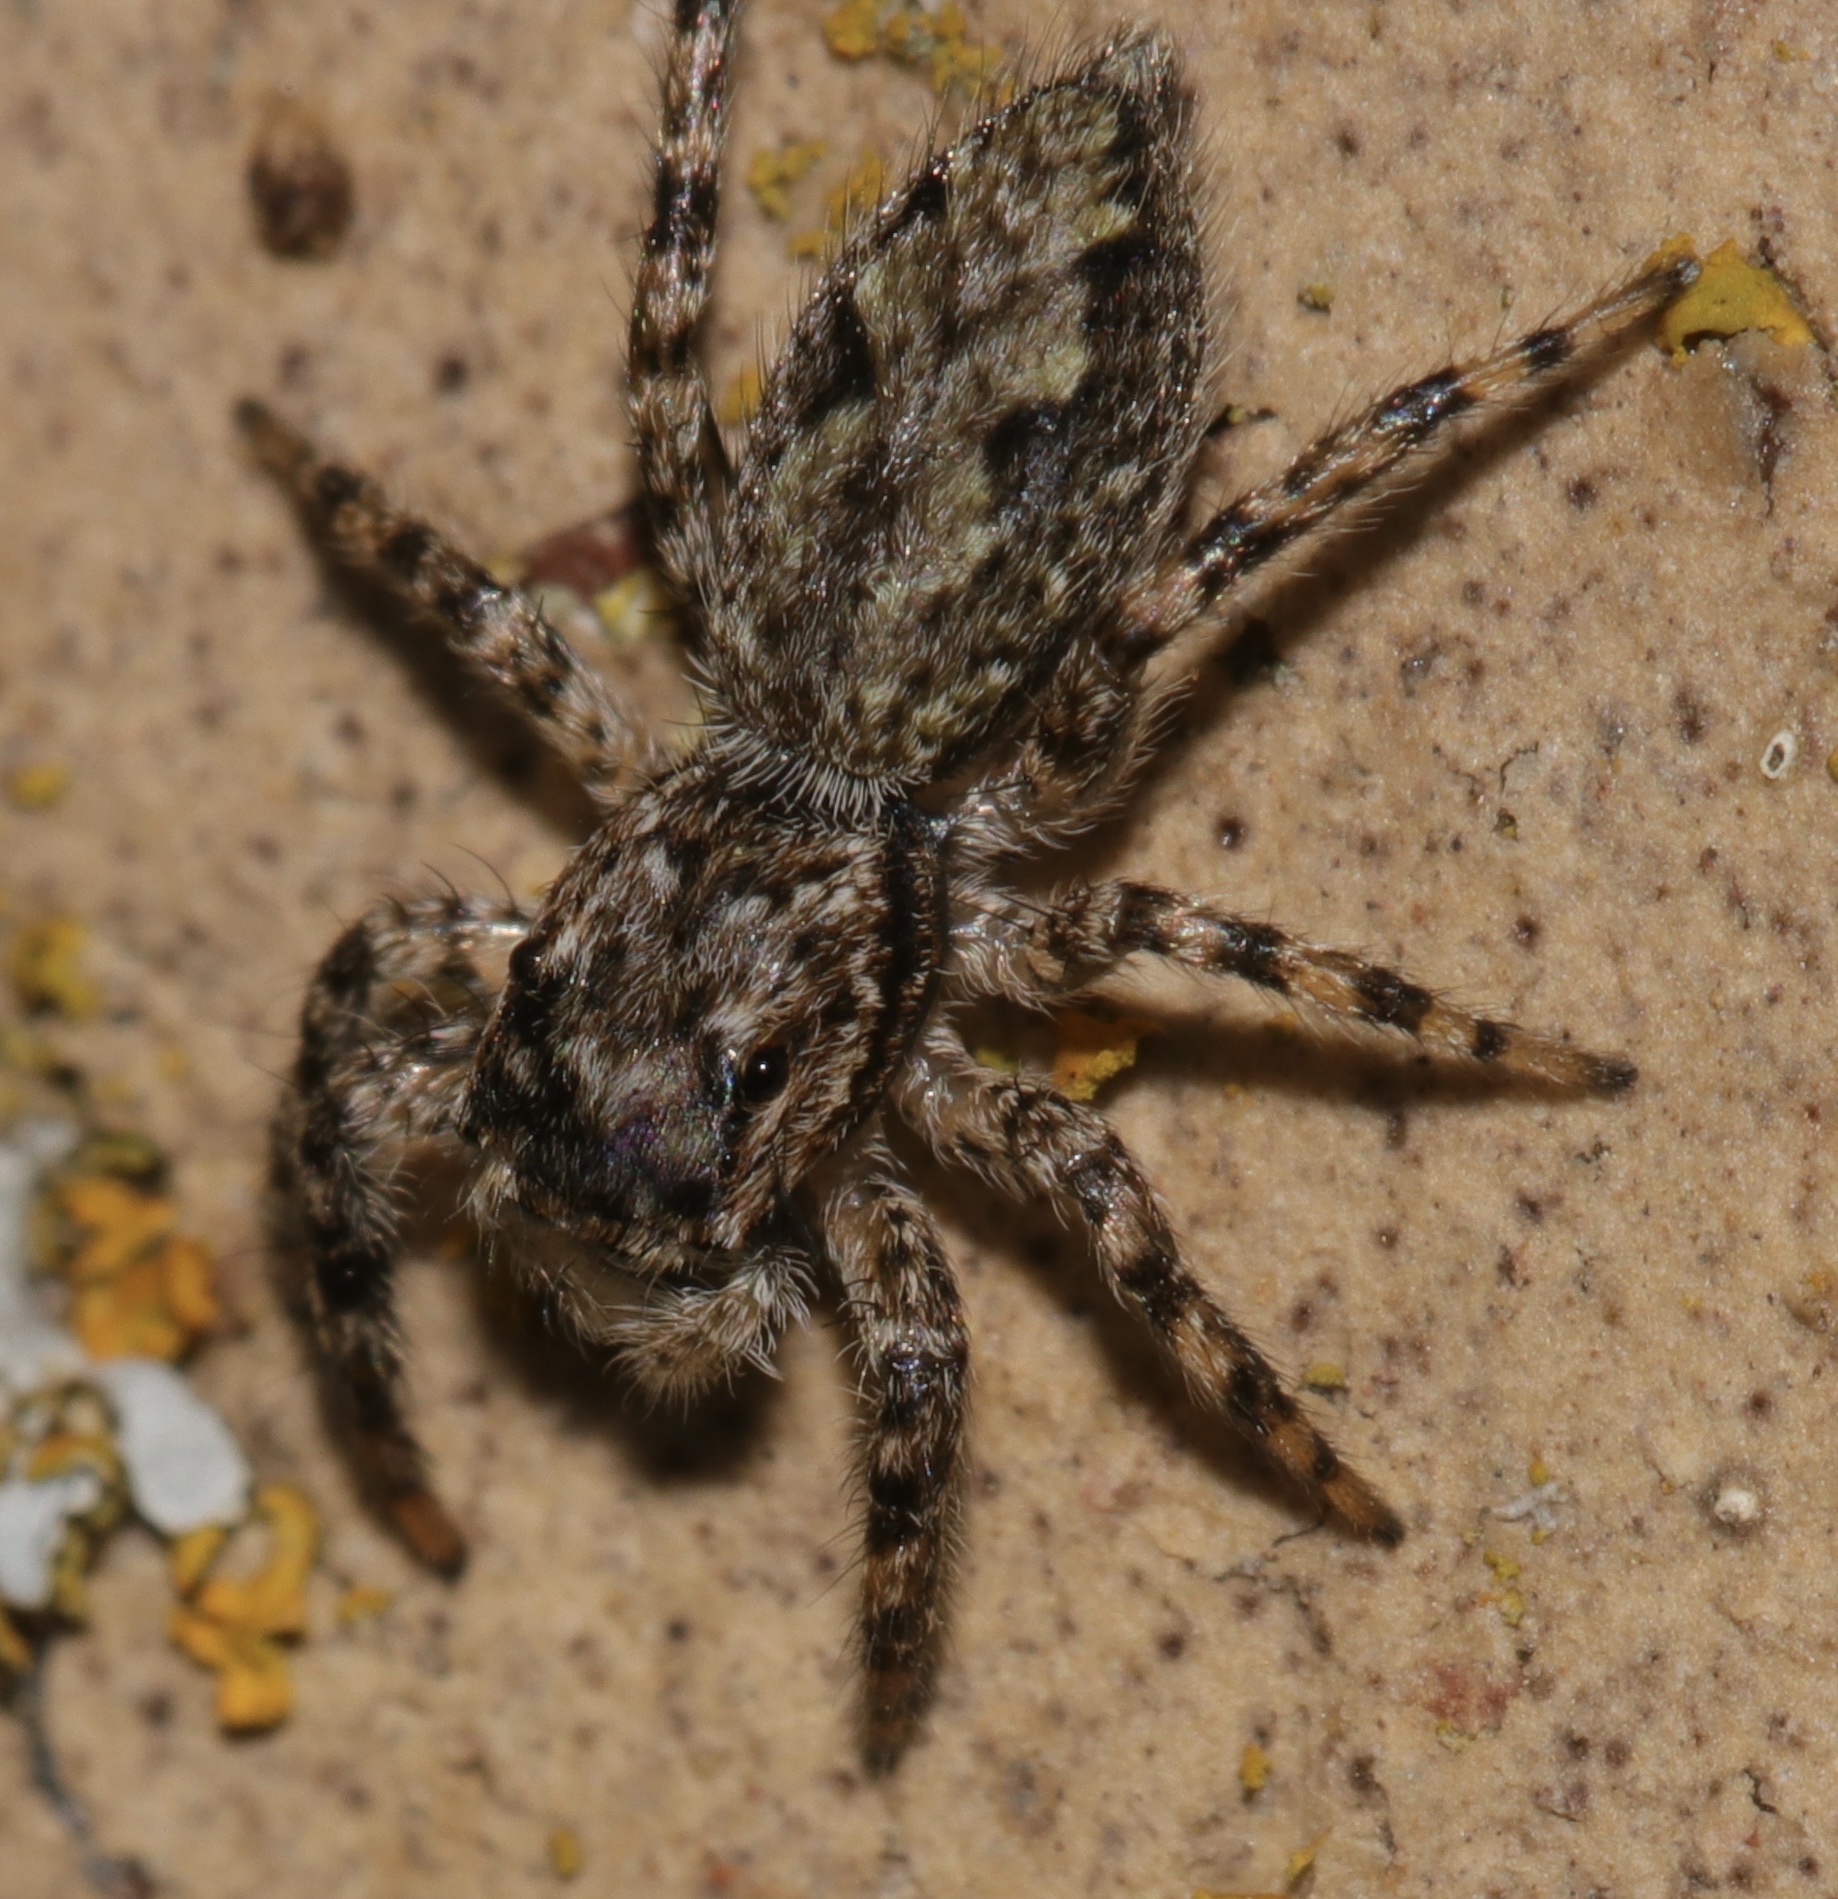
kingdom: Animalia
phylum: Arthropoda
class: Arachnida
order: Araneae
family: Salticidae
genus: Platycryptus
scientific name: Platycryptus undatus
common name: Tan jumping spider
